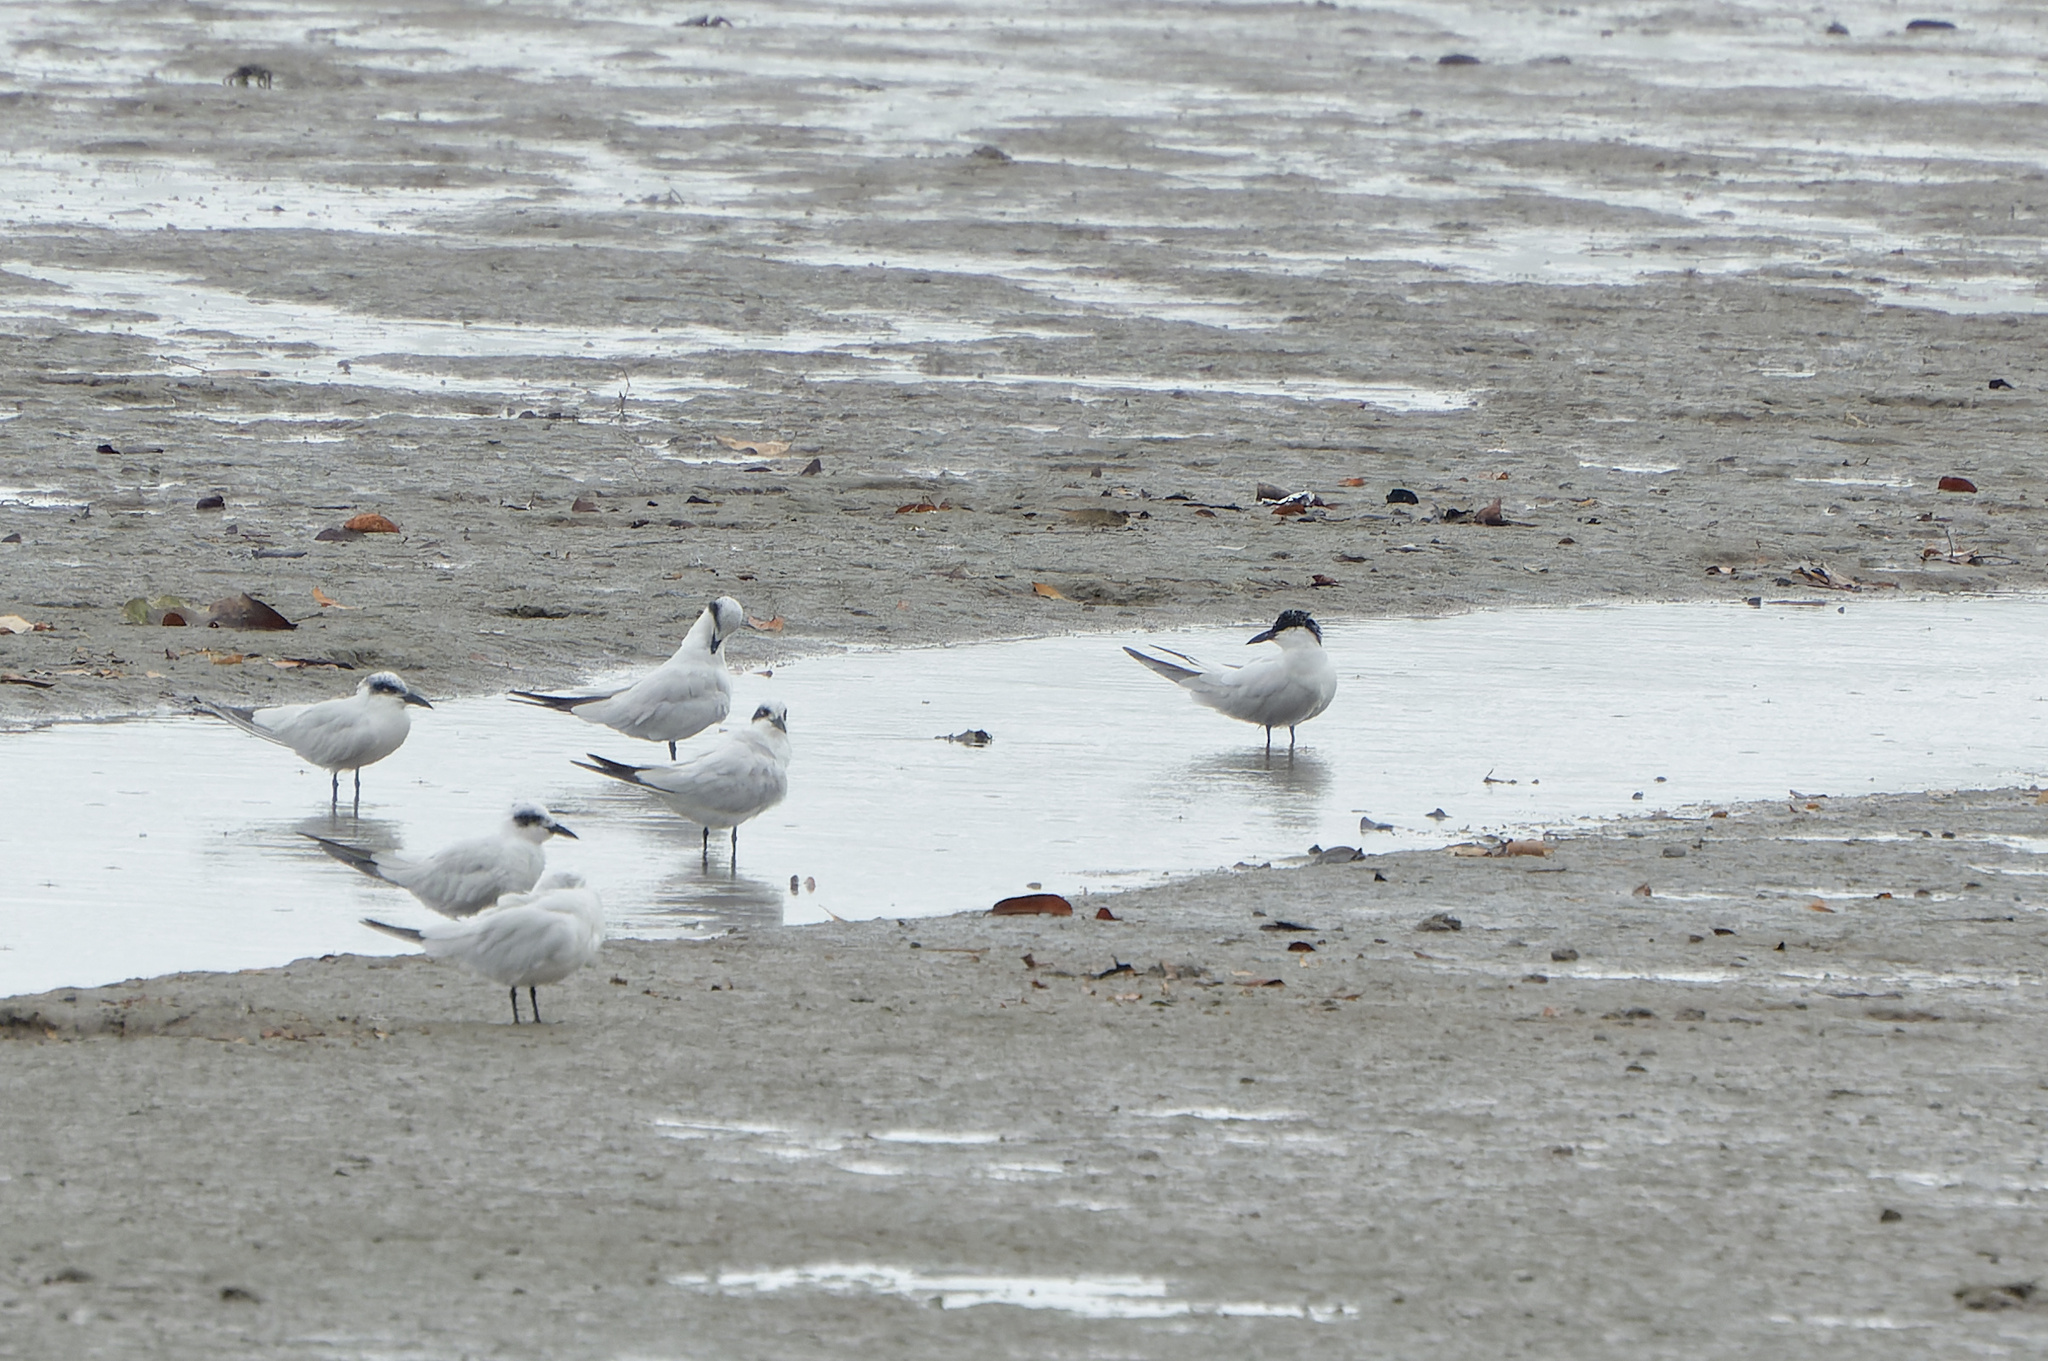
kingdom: Animalia
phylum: Chordata
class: Aves
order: Charadriiformes
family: Laridae
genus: Gelochelidon
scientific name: Gelochelidon macrotarsa
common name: Australian tern
